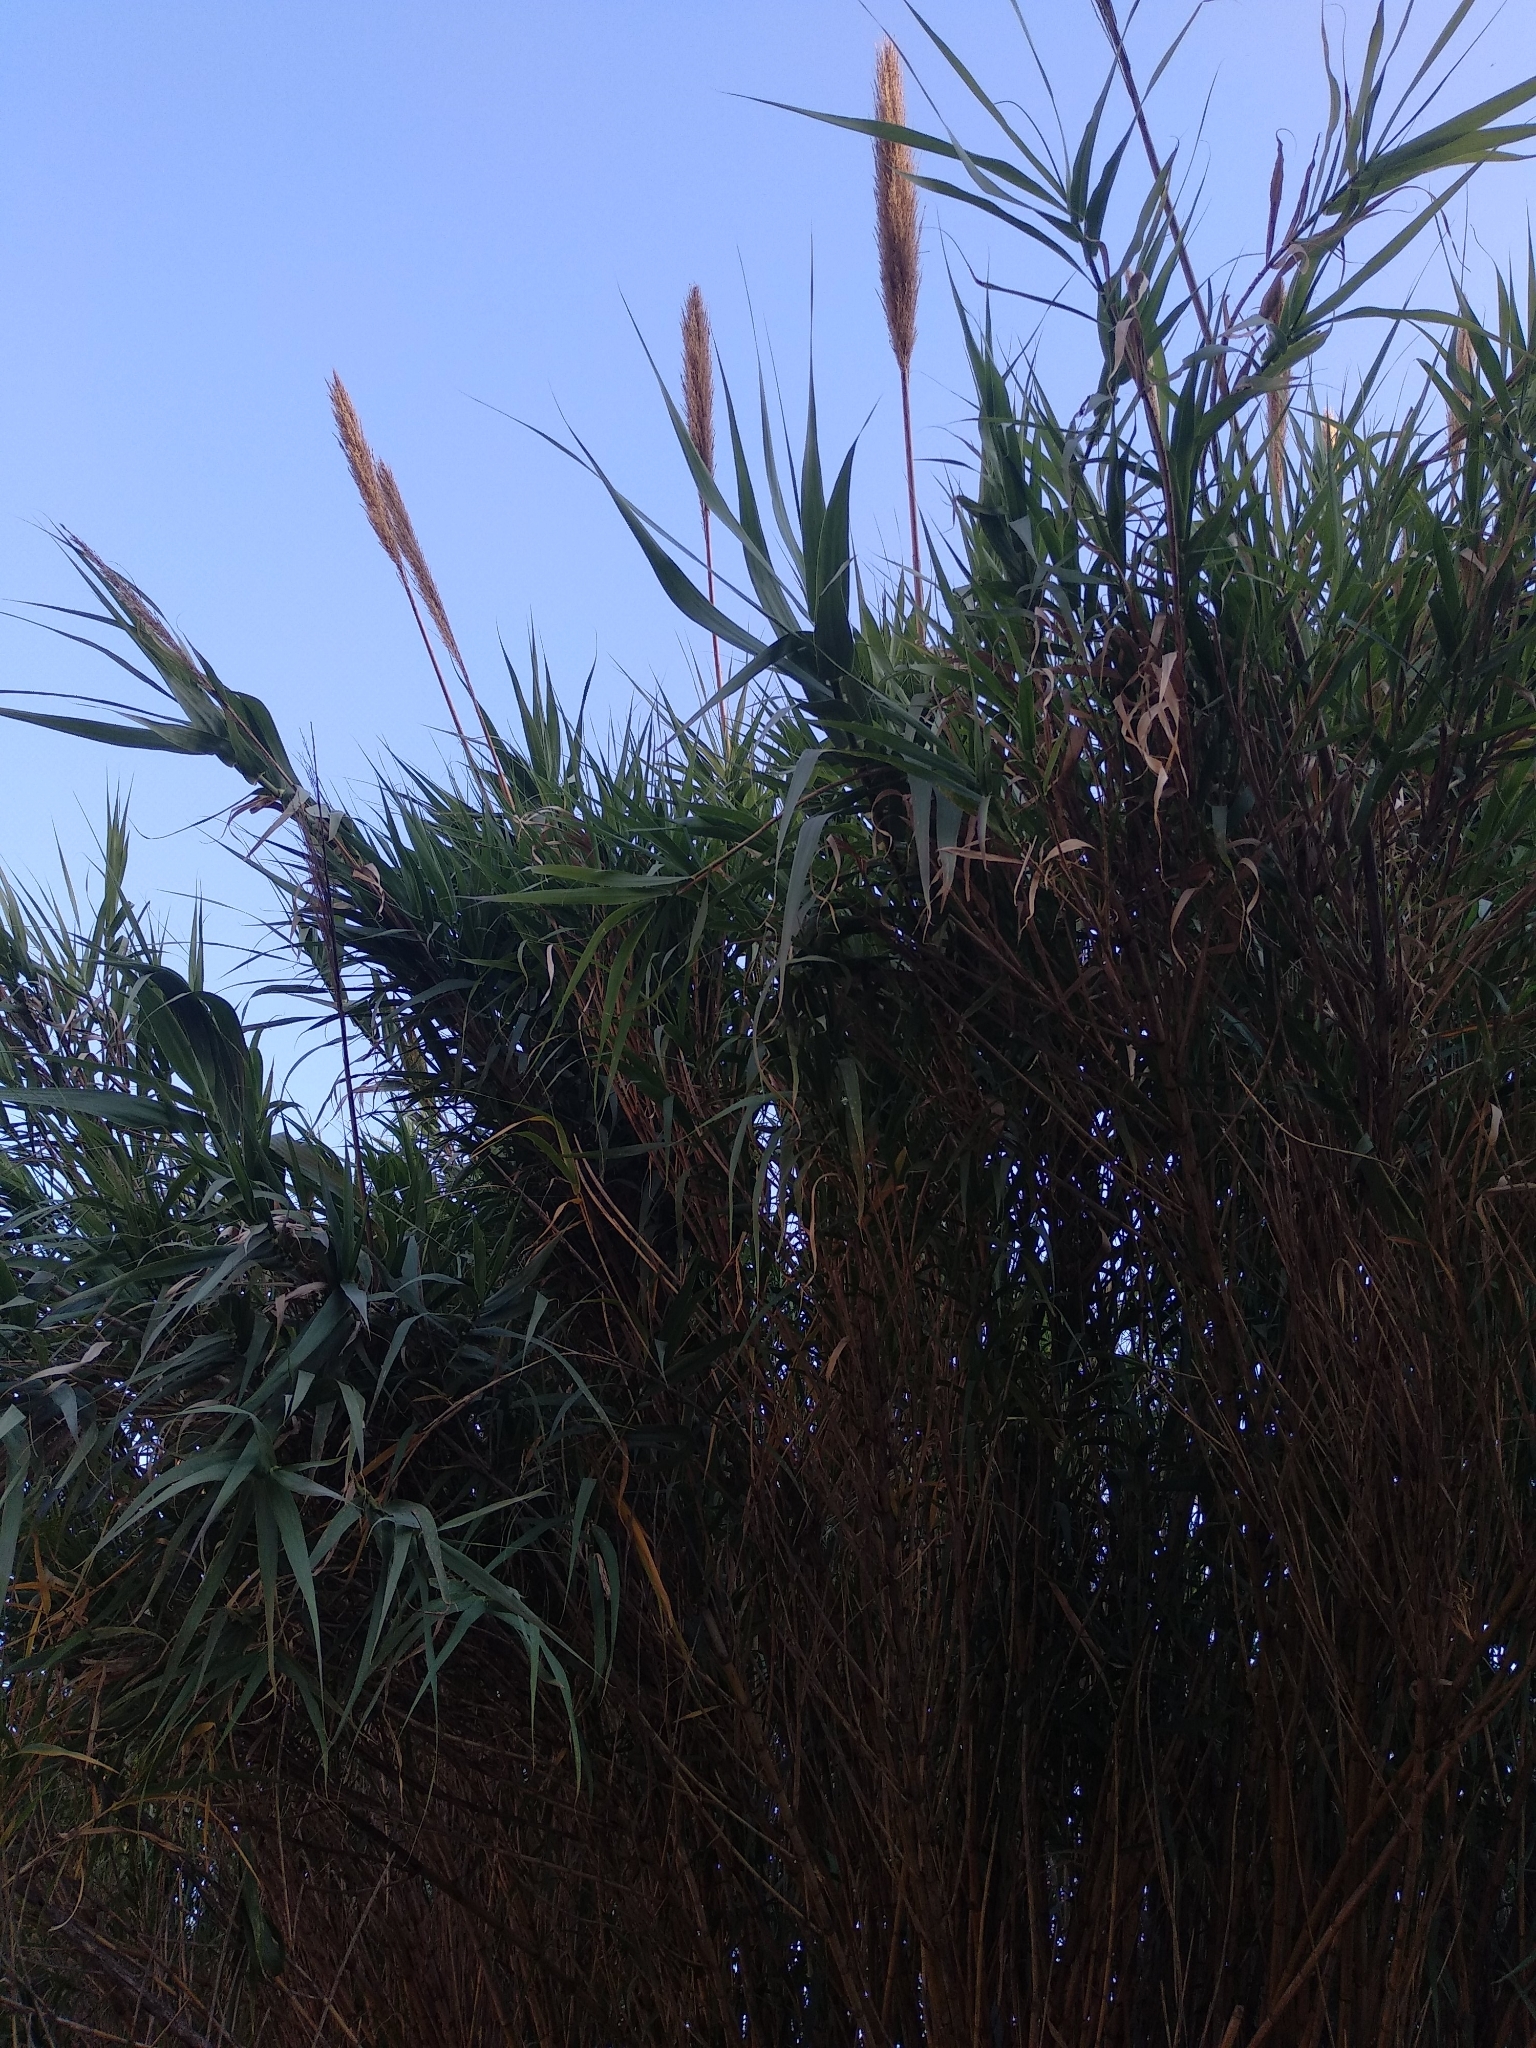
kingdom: Plantae
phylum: Tracheophyta
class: Liliopsida
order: Poales
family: Poaceae
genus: Arundo
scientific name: Arundo donax
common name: Giant reed
